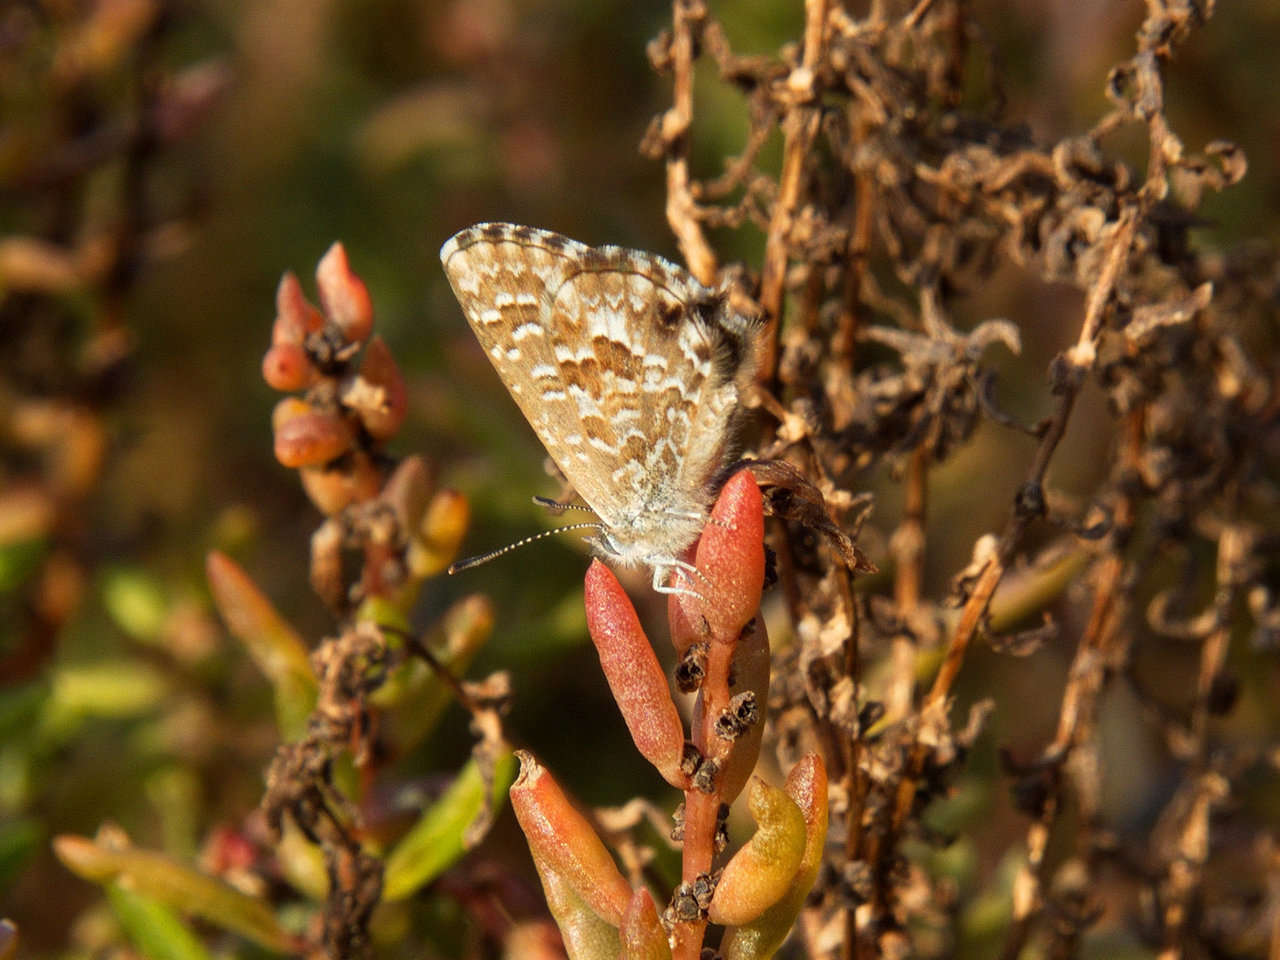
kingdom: Animalia
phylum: Arthropoda
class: Insecta
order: Lepidoptera
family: Lycaenidae
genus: Theclinesthes
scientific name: Theclinesthes serpentata
